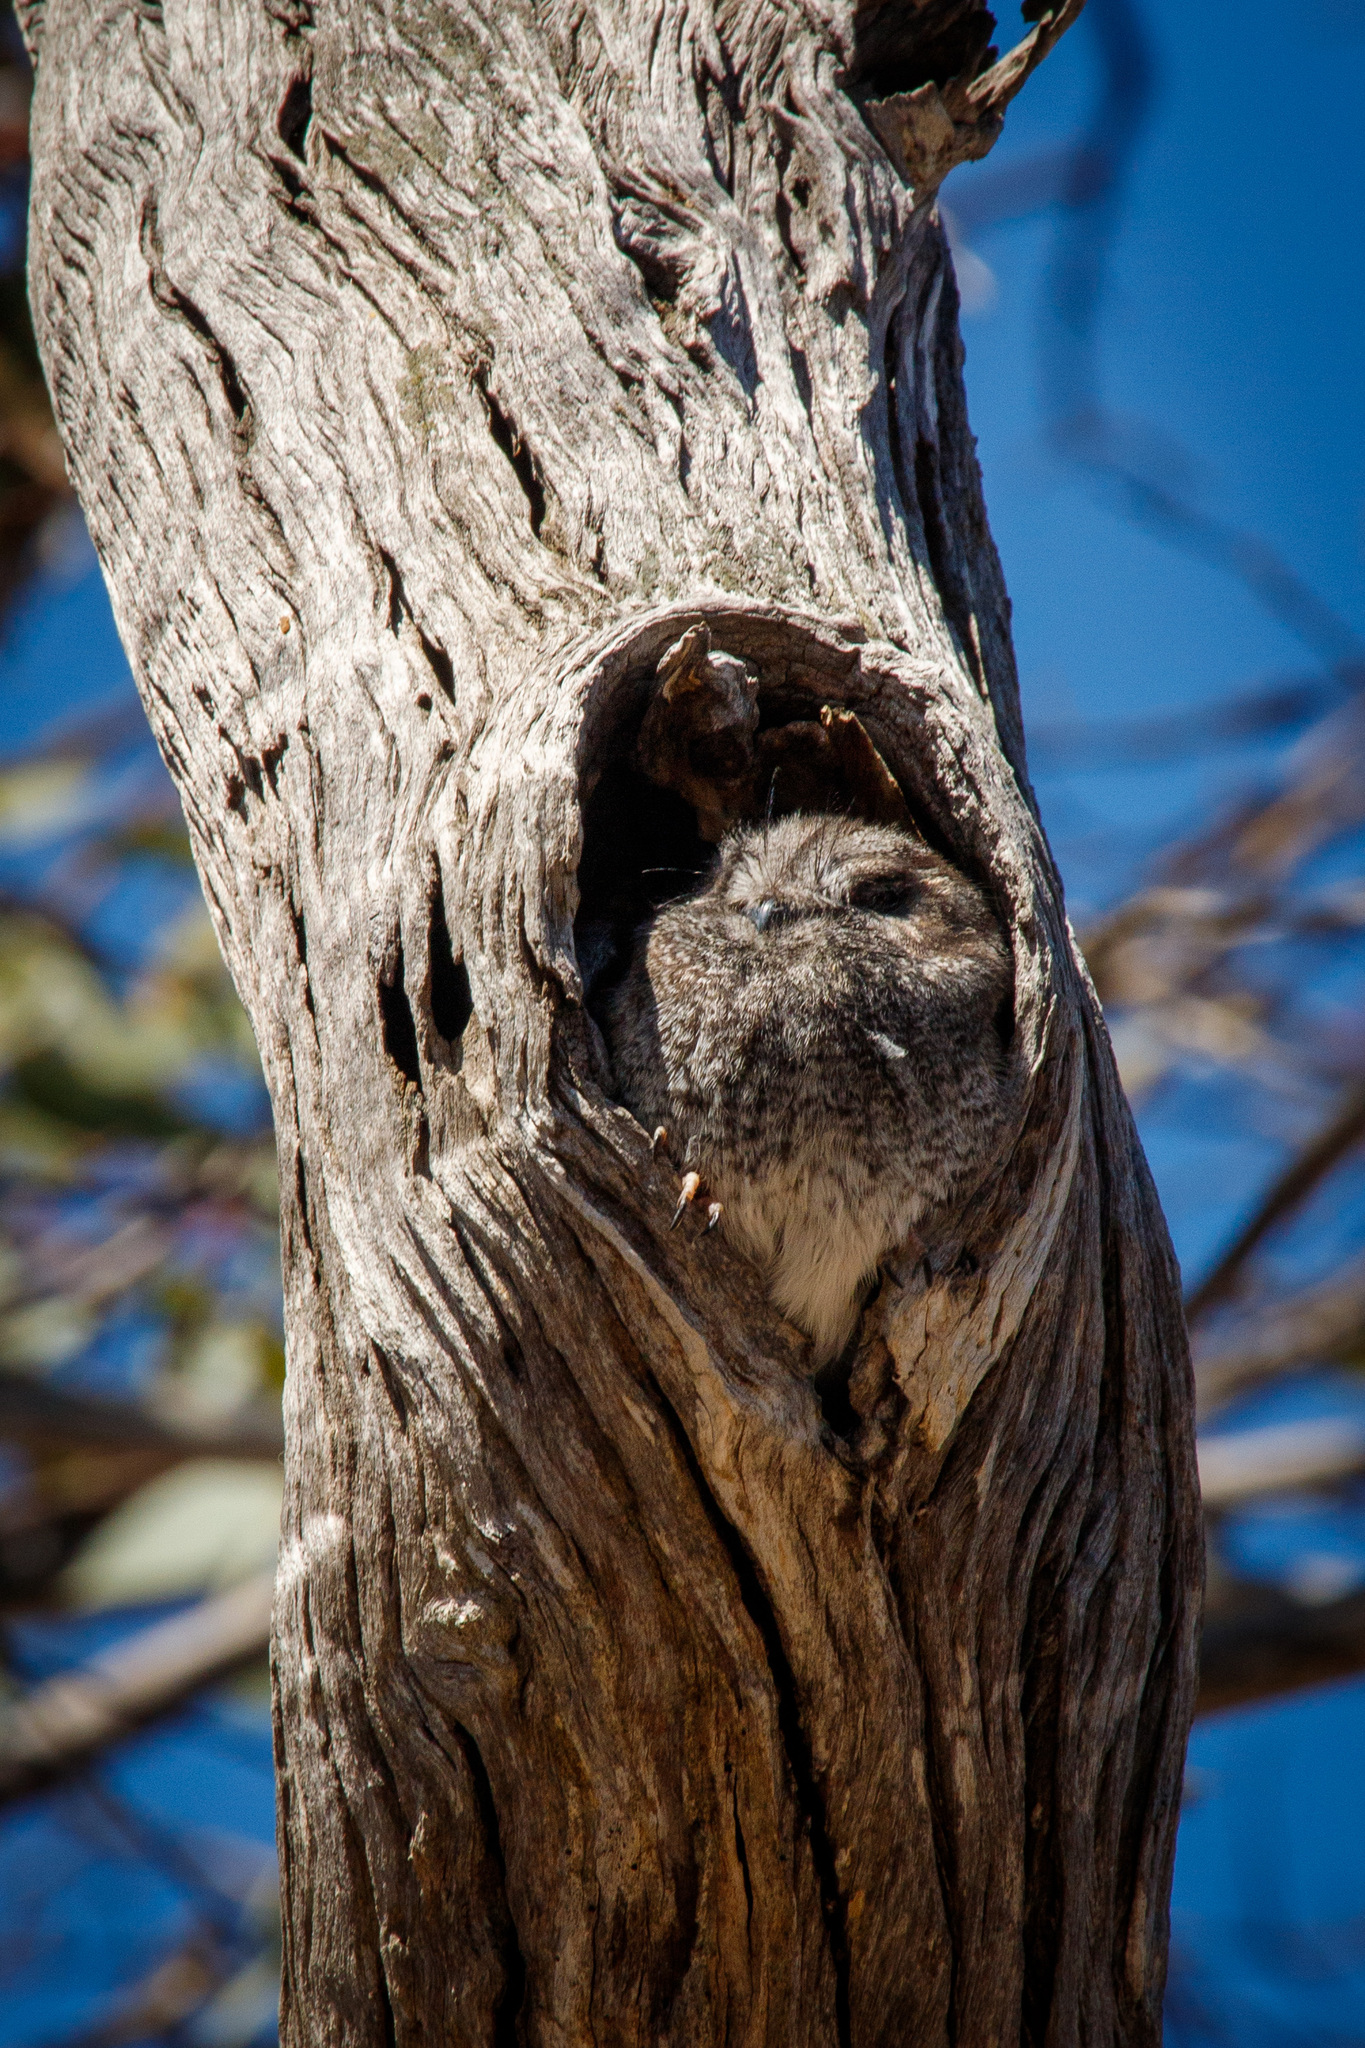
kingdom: Animalia
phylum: Chordata
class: Aves
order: Apodiformes
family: Aegothelidae
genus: Aegotheles
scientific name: Aegotheles cristatus
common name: Australian owlet-nightjar
